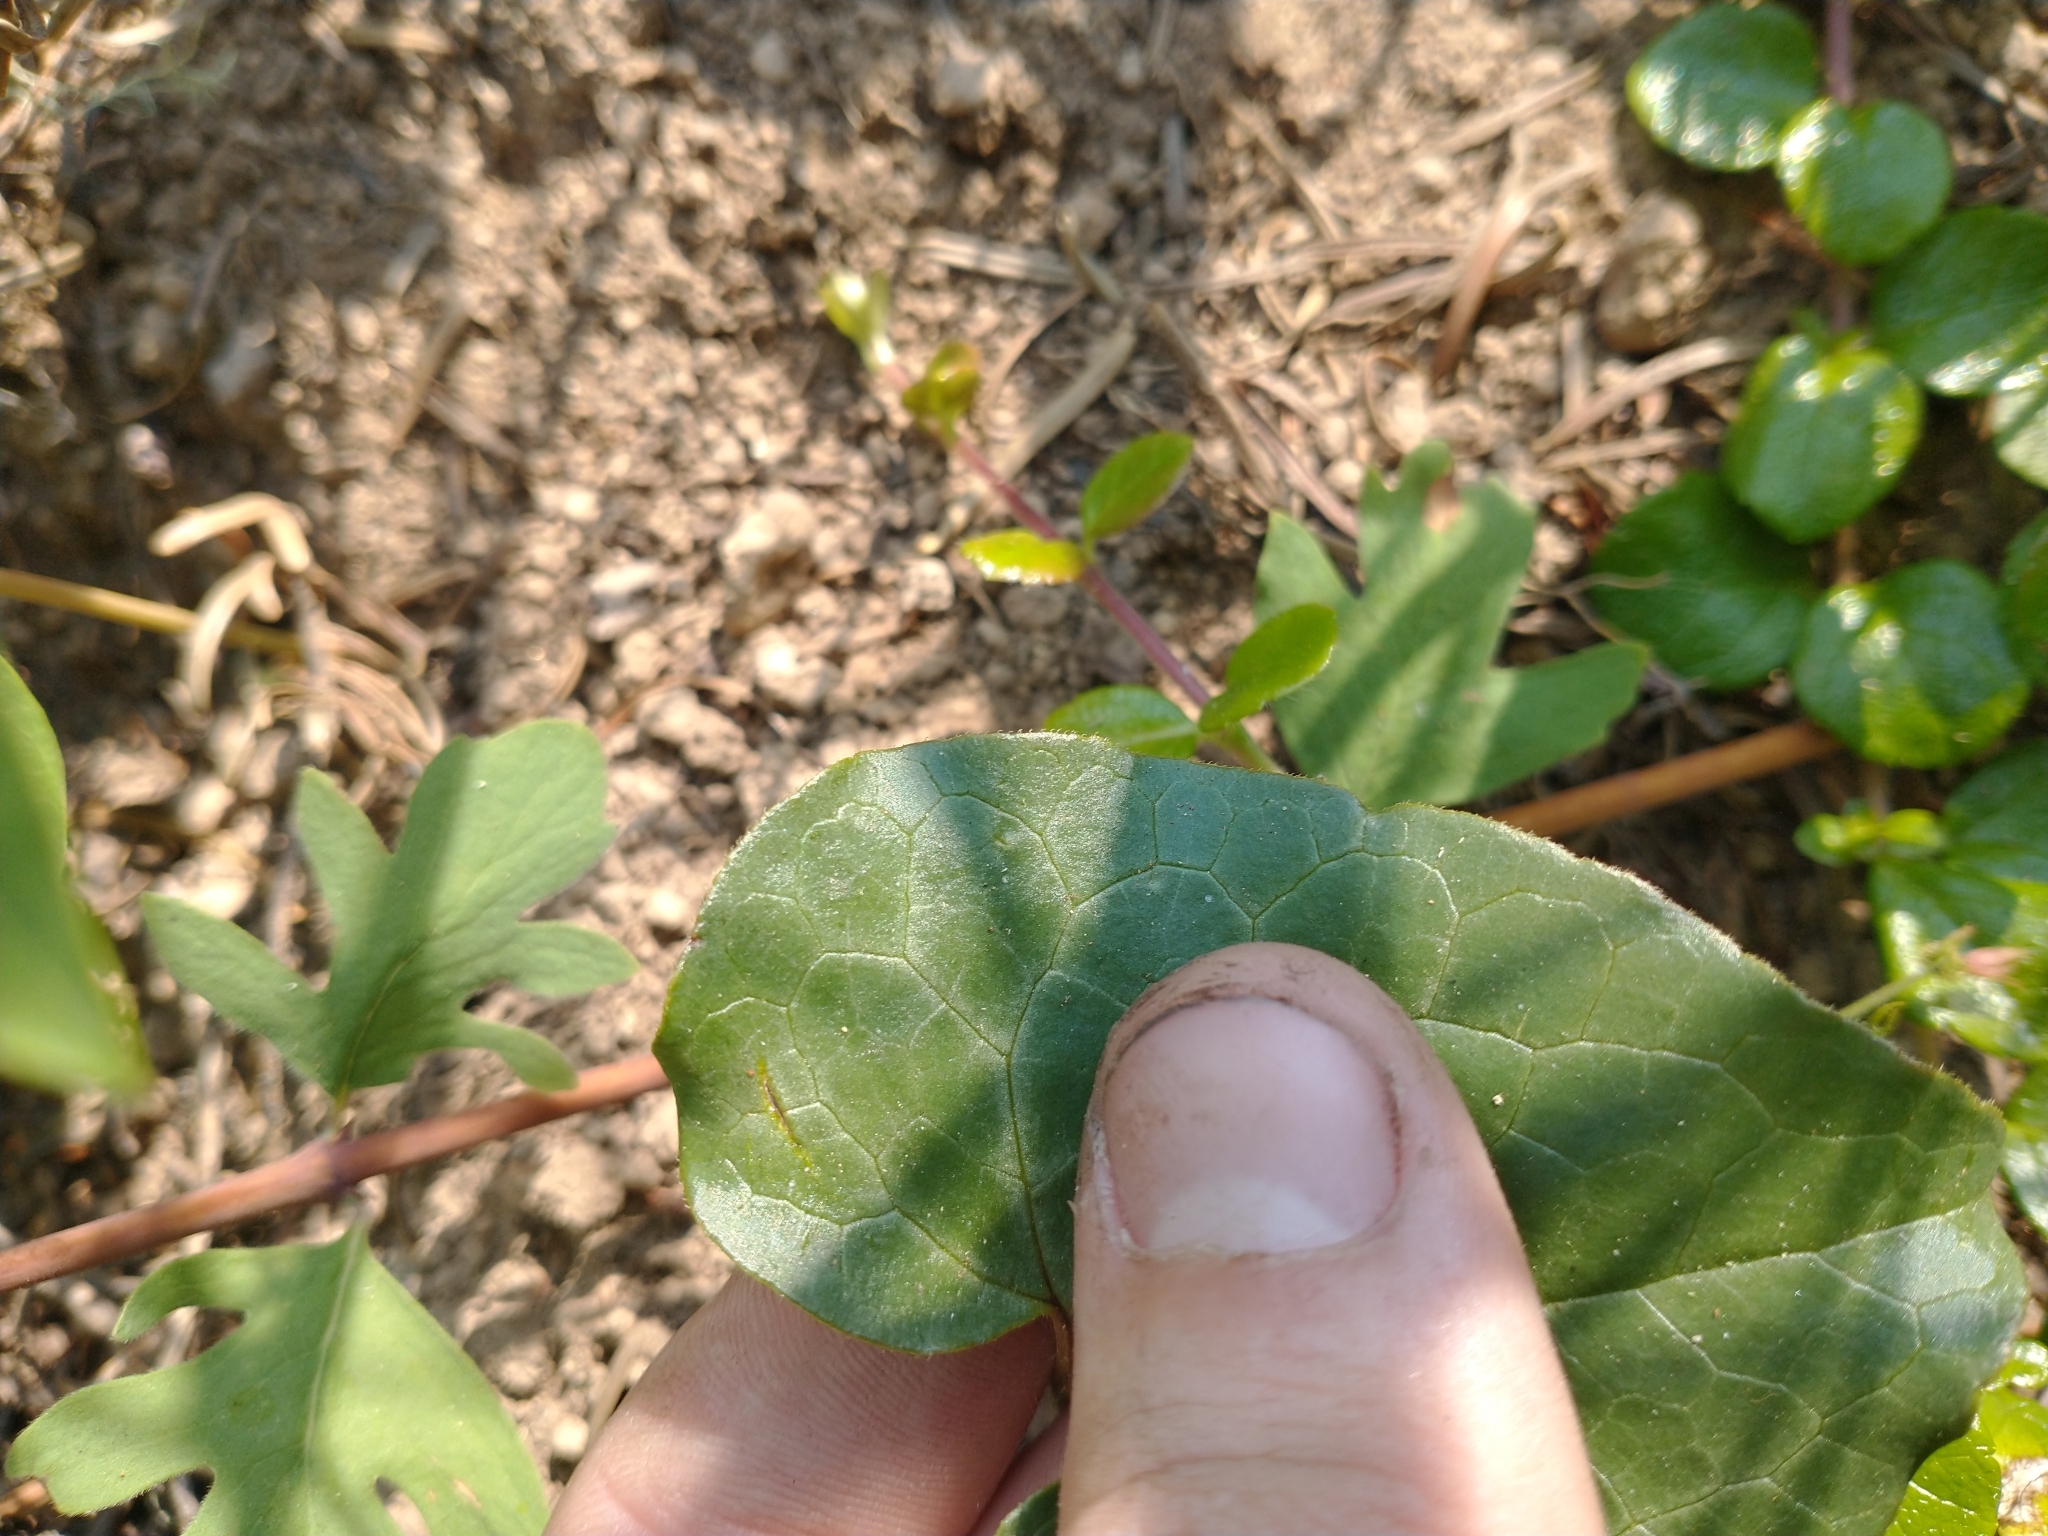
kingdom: Plantae
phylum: Tracheophyta
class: Magnoliopsida
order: Piperales
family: Aristolochiaceae
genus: Asarum
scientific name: Asarum caudatum
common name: Wild ginger
